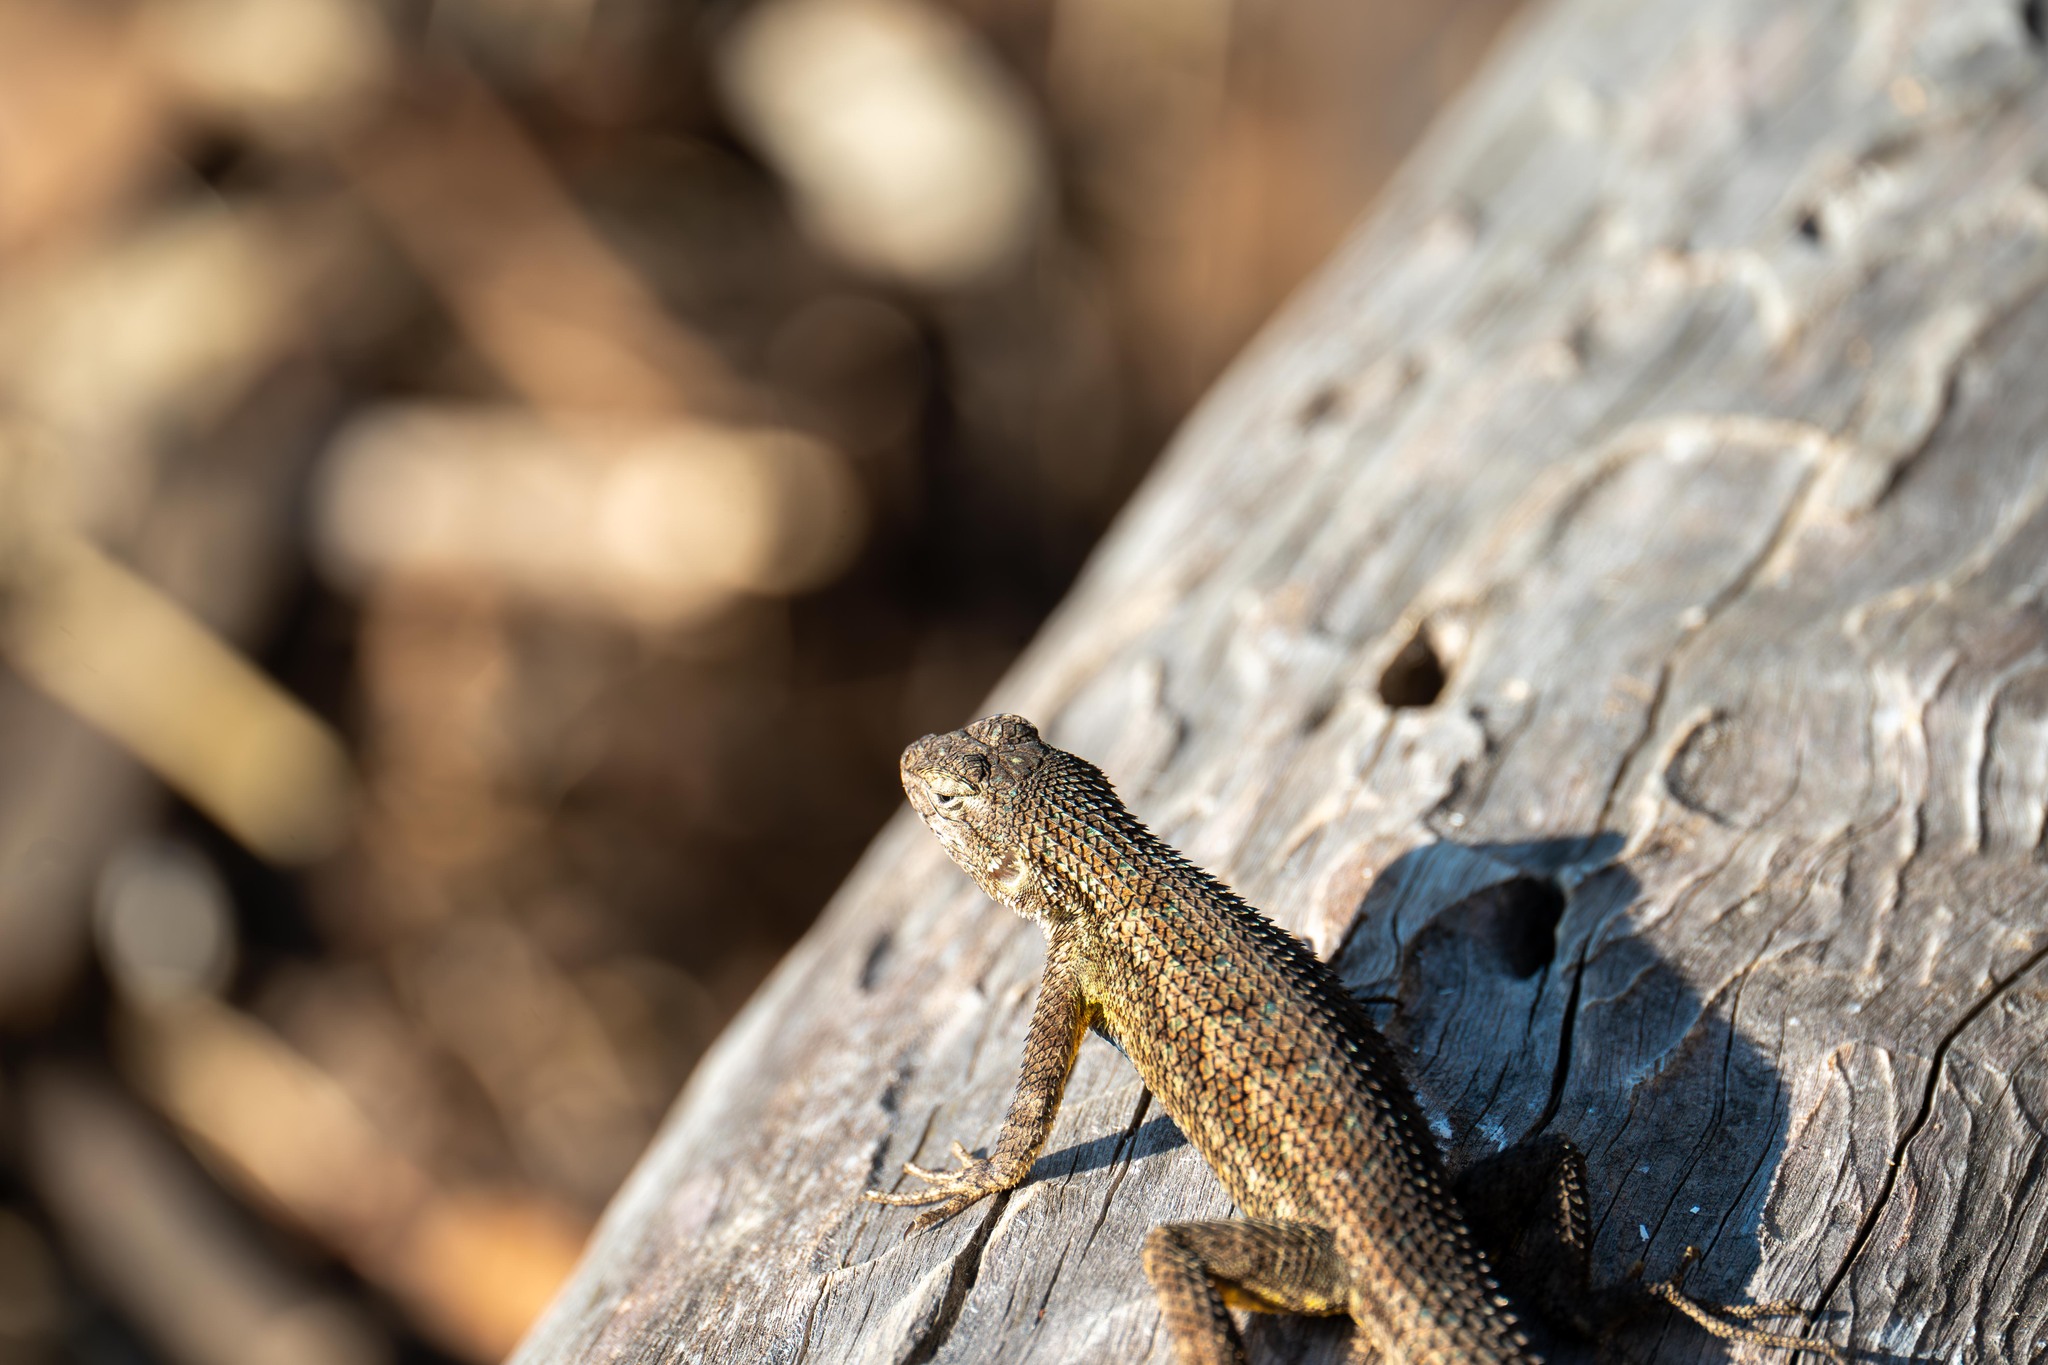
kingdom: Animalia
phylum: Chordata
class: Squamata
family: Phrynosomatidae
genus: Sceloporus
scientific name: Sceloporus occidentalis
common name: Western fence lizard
